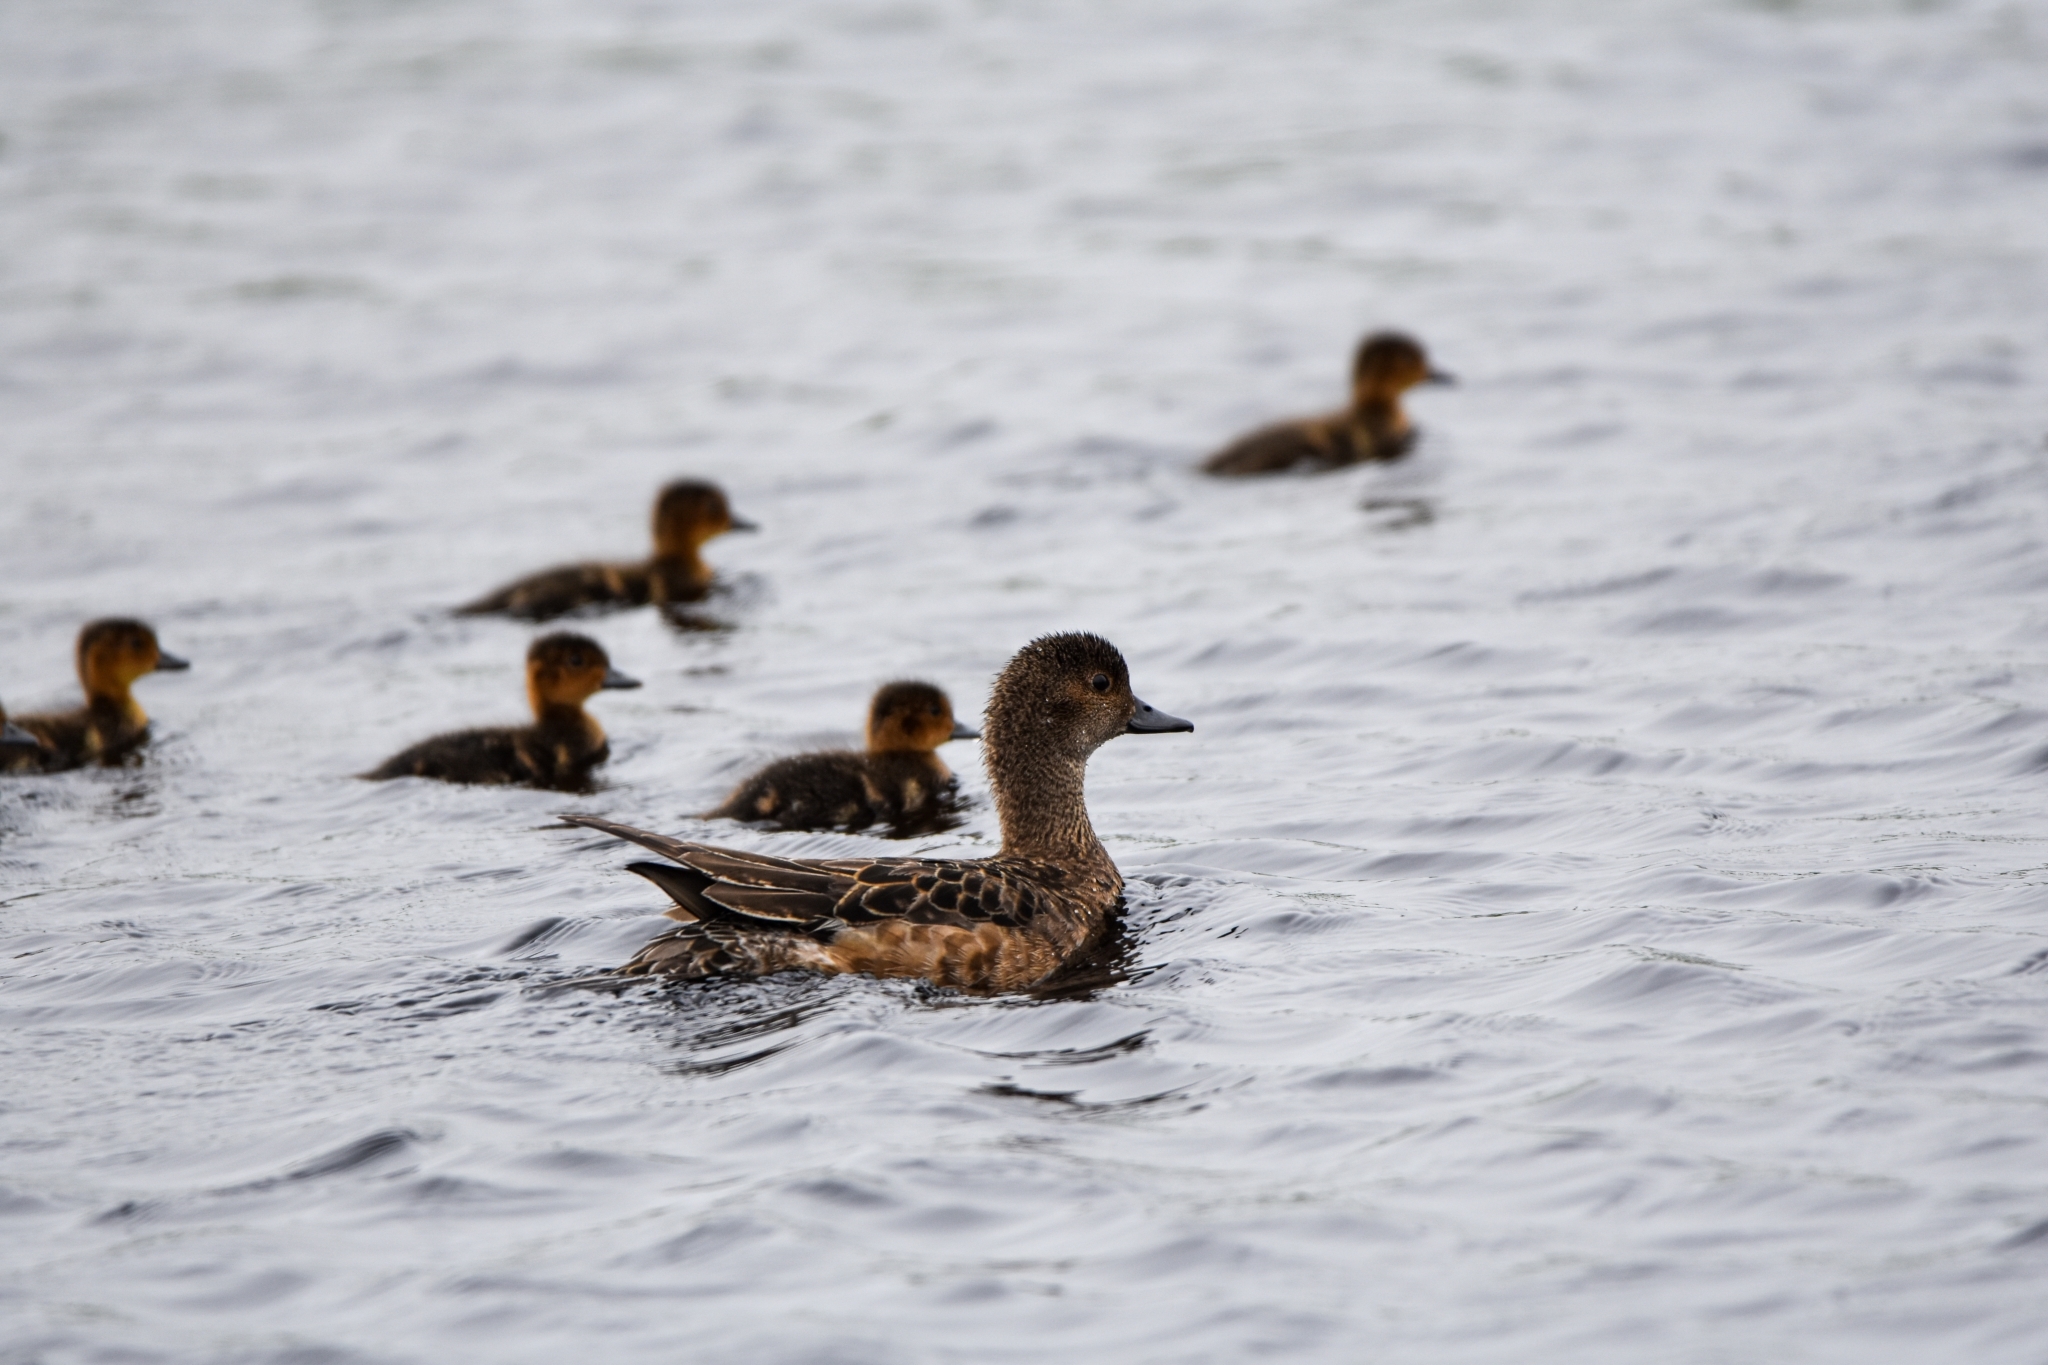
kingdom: Animalia
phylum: Chordata
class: Aves
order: Anseriformes
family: Anatidae
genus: Mareca
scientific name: Mareca penelope
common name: Eurasian wigeon
